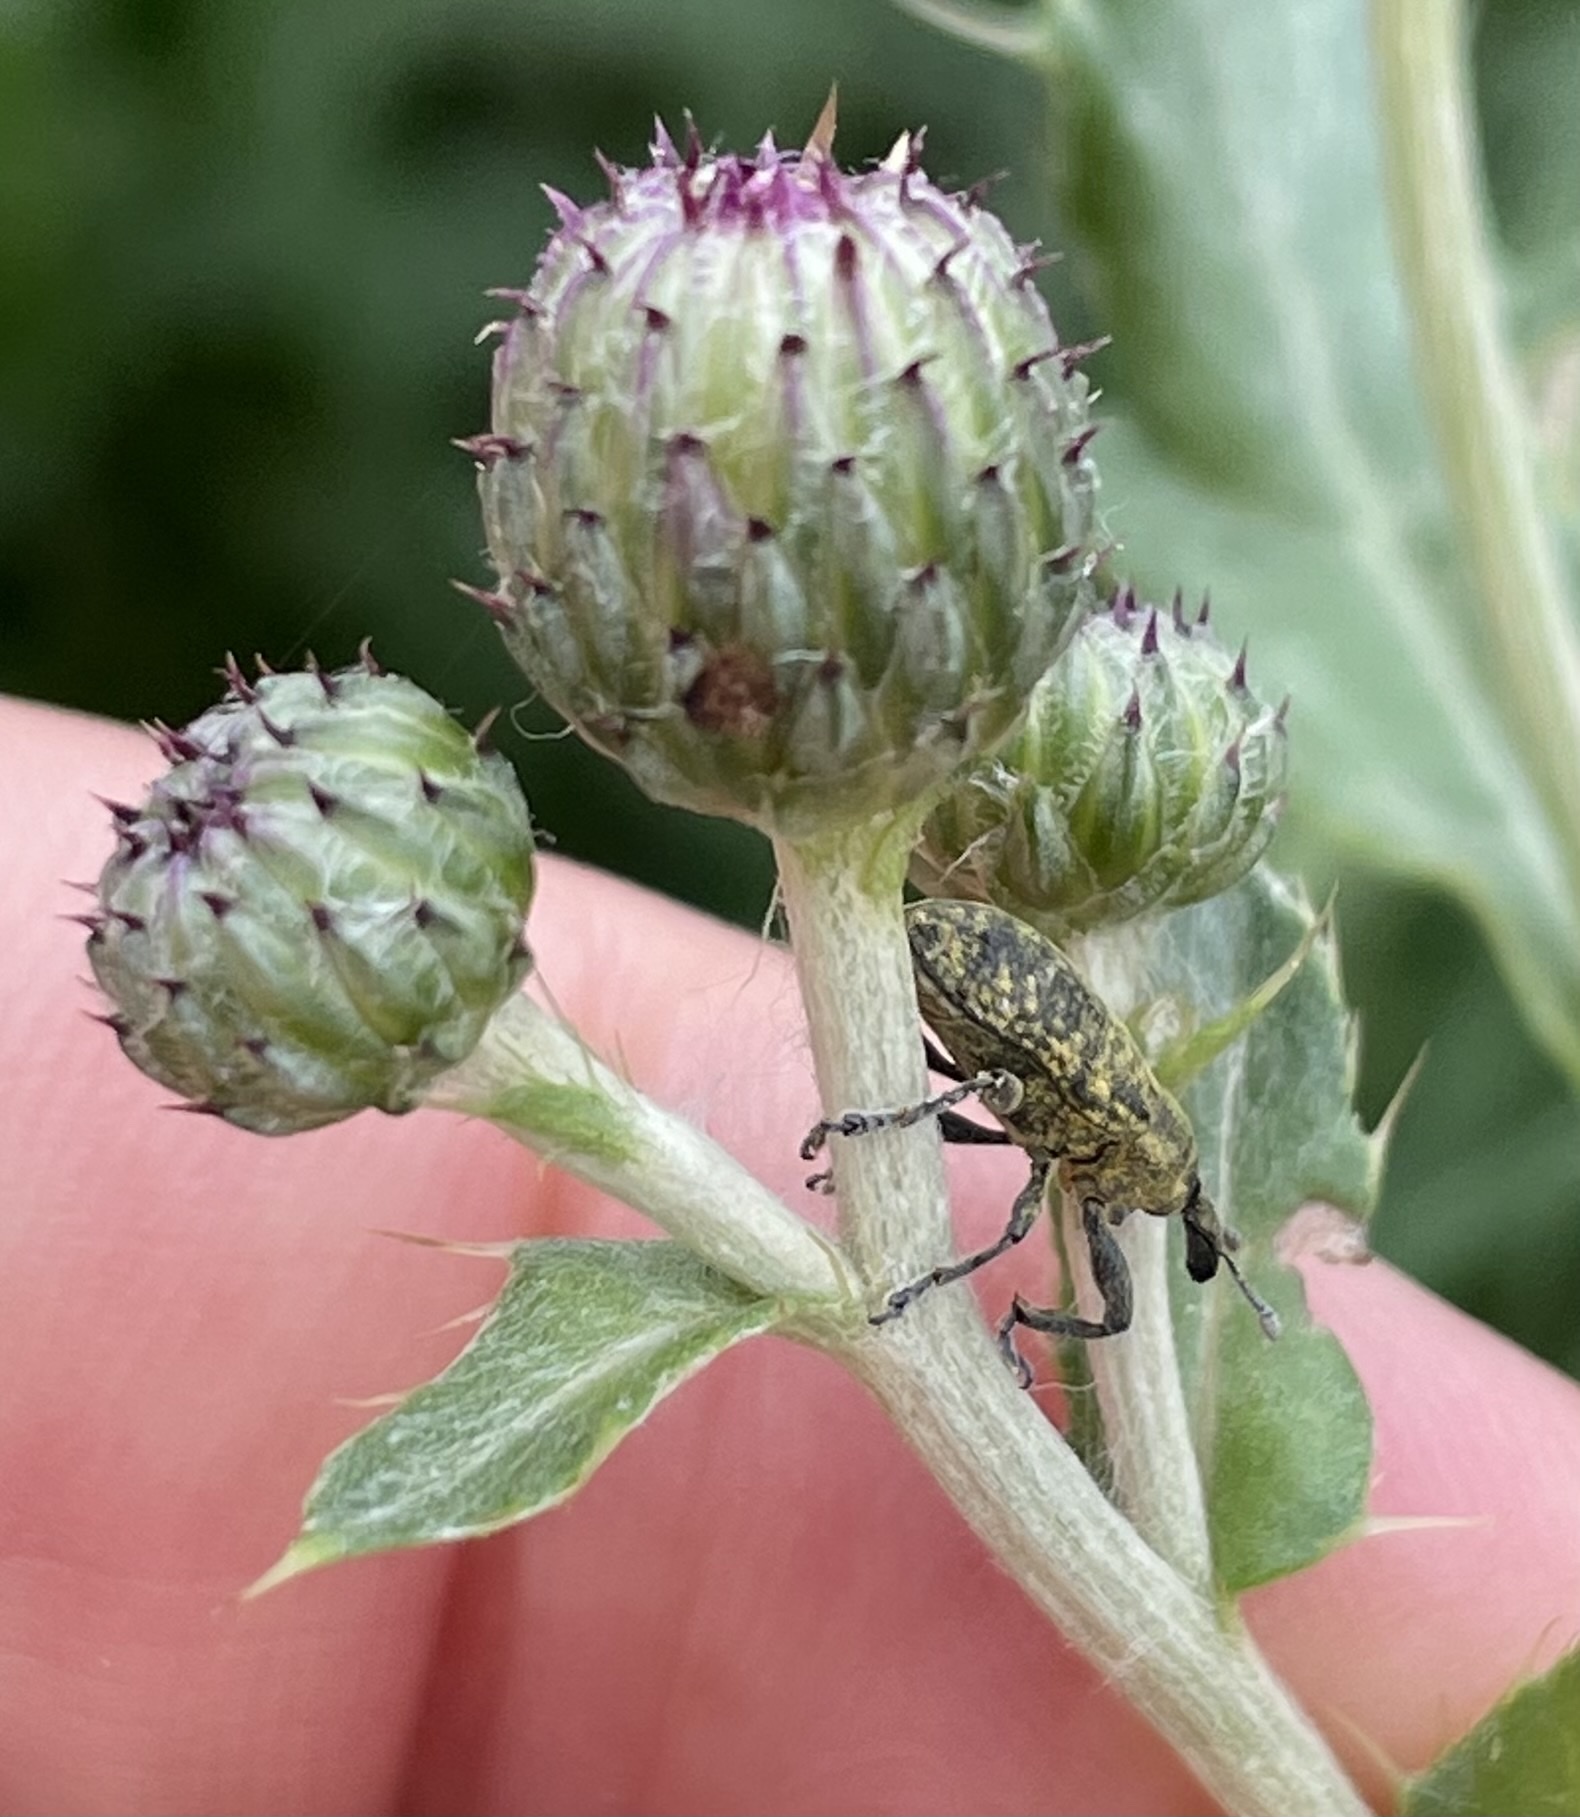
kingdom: Animalia
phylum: Arthropoda
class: Insecta
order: Coleoptera
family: Curculionidae
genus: Larinus
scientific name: Larinus carlinae
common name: Weevil
